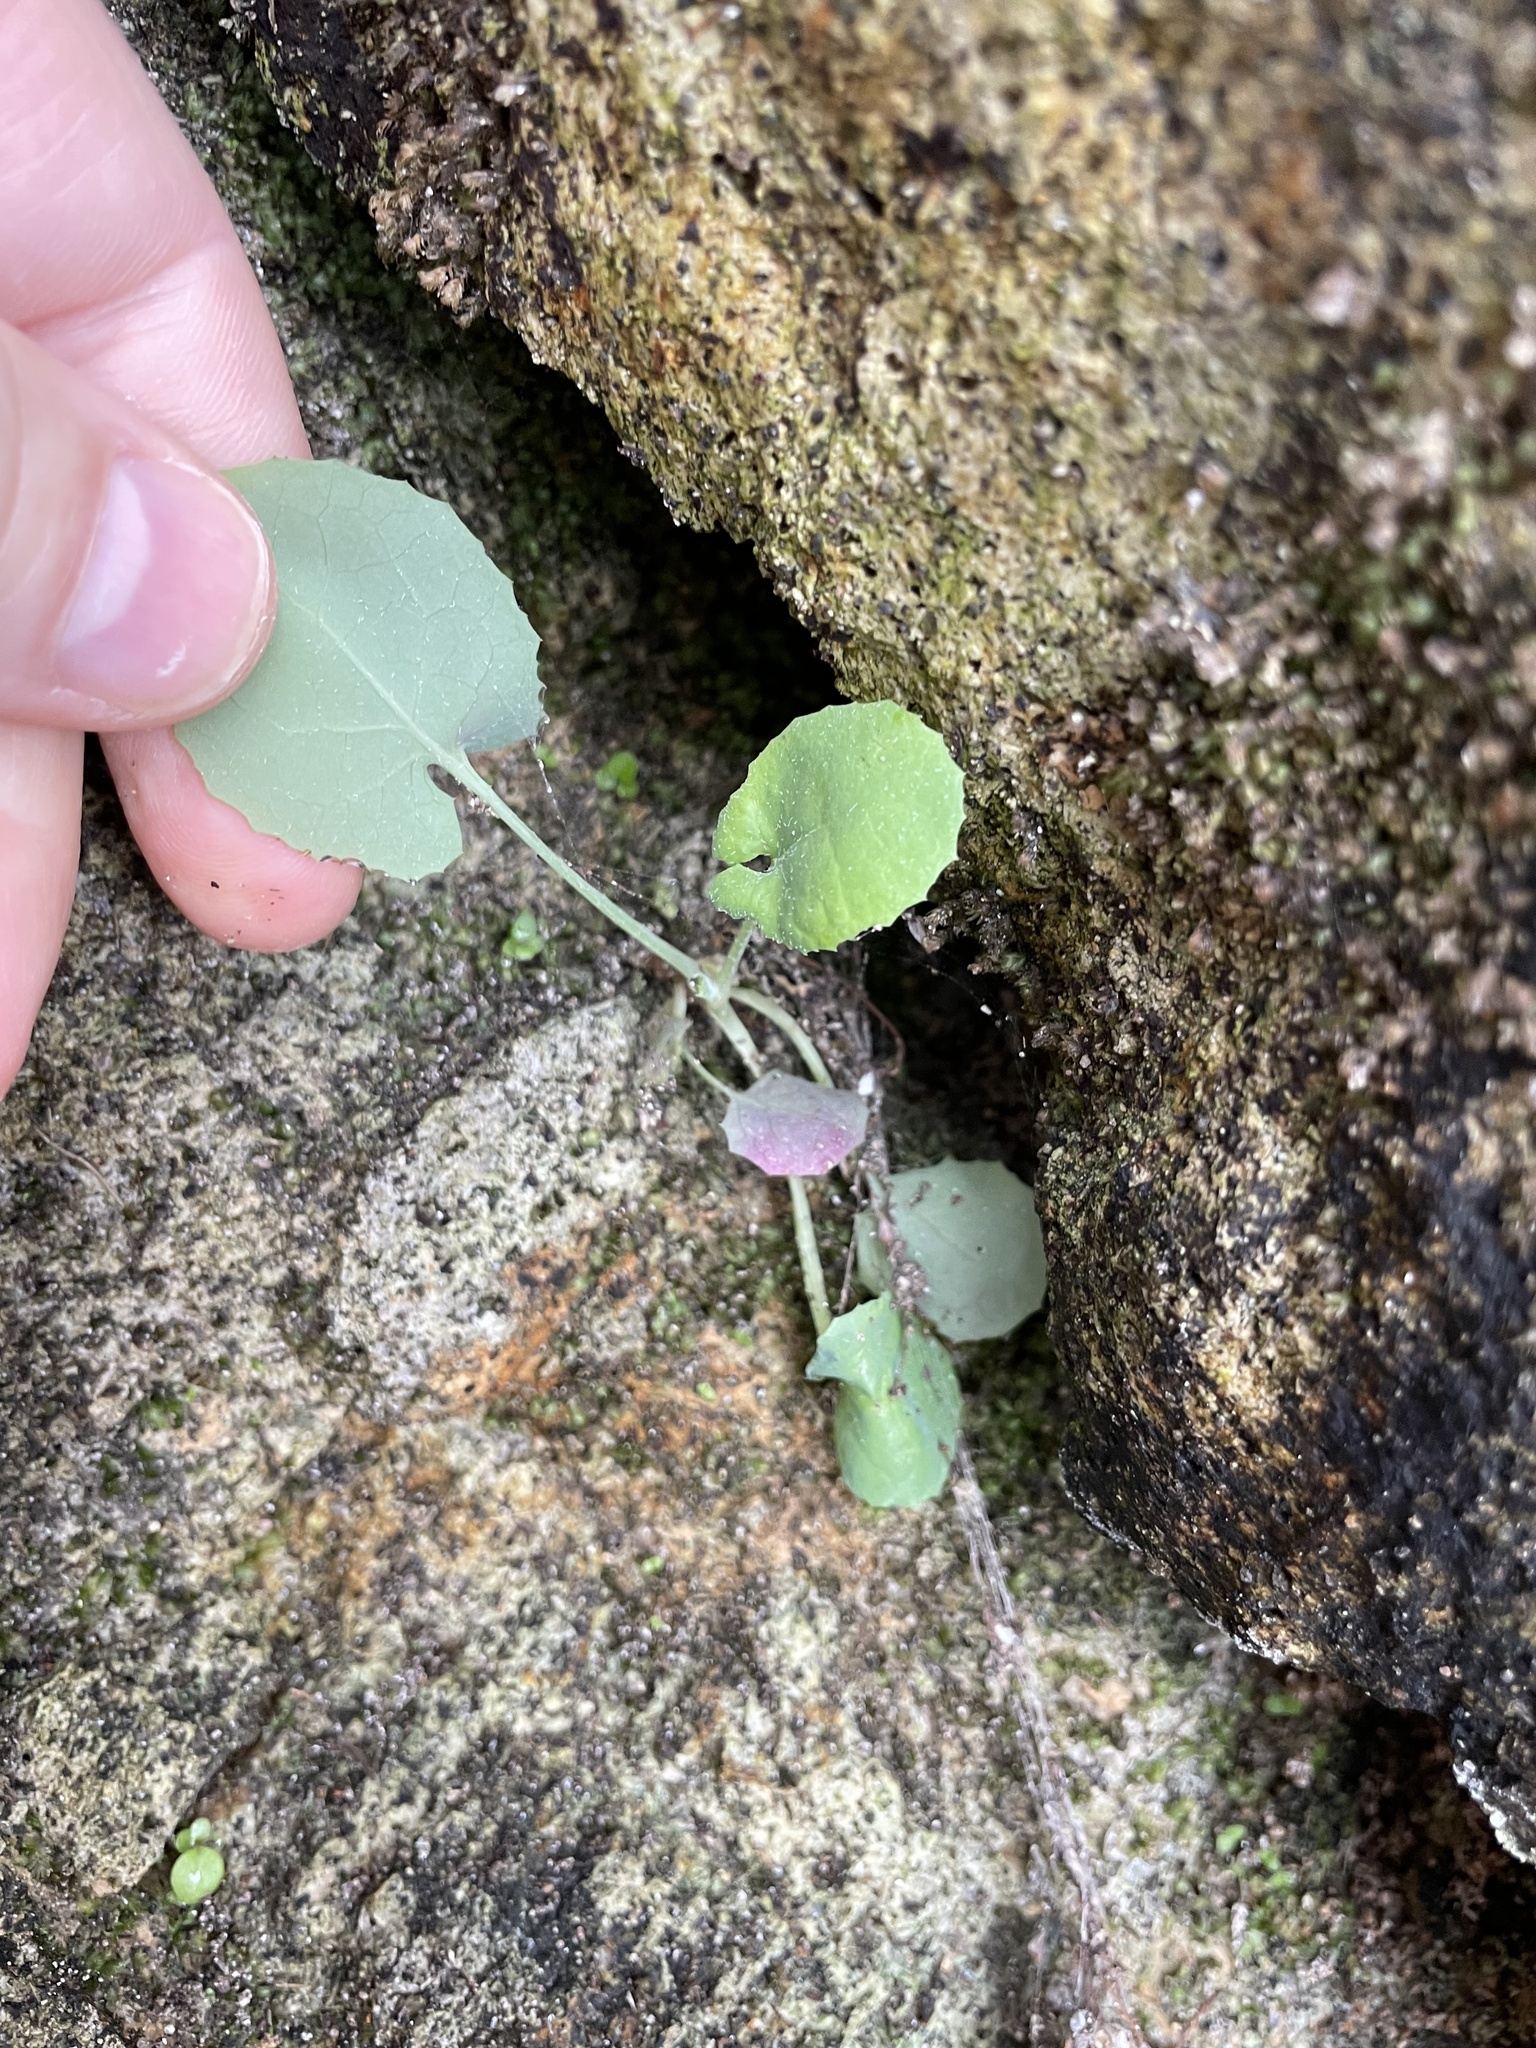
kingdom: Plantae
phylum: Tracheophyta
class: Magnoliopsida
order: Asterales
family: Asteraceae
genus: Sonchus
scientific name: Sonchus oleraceus
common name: Common sowthistle
